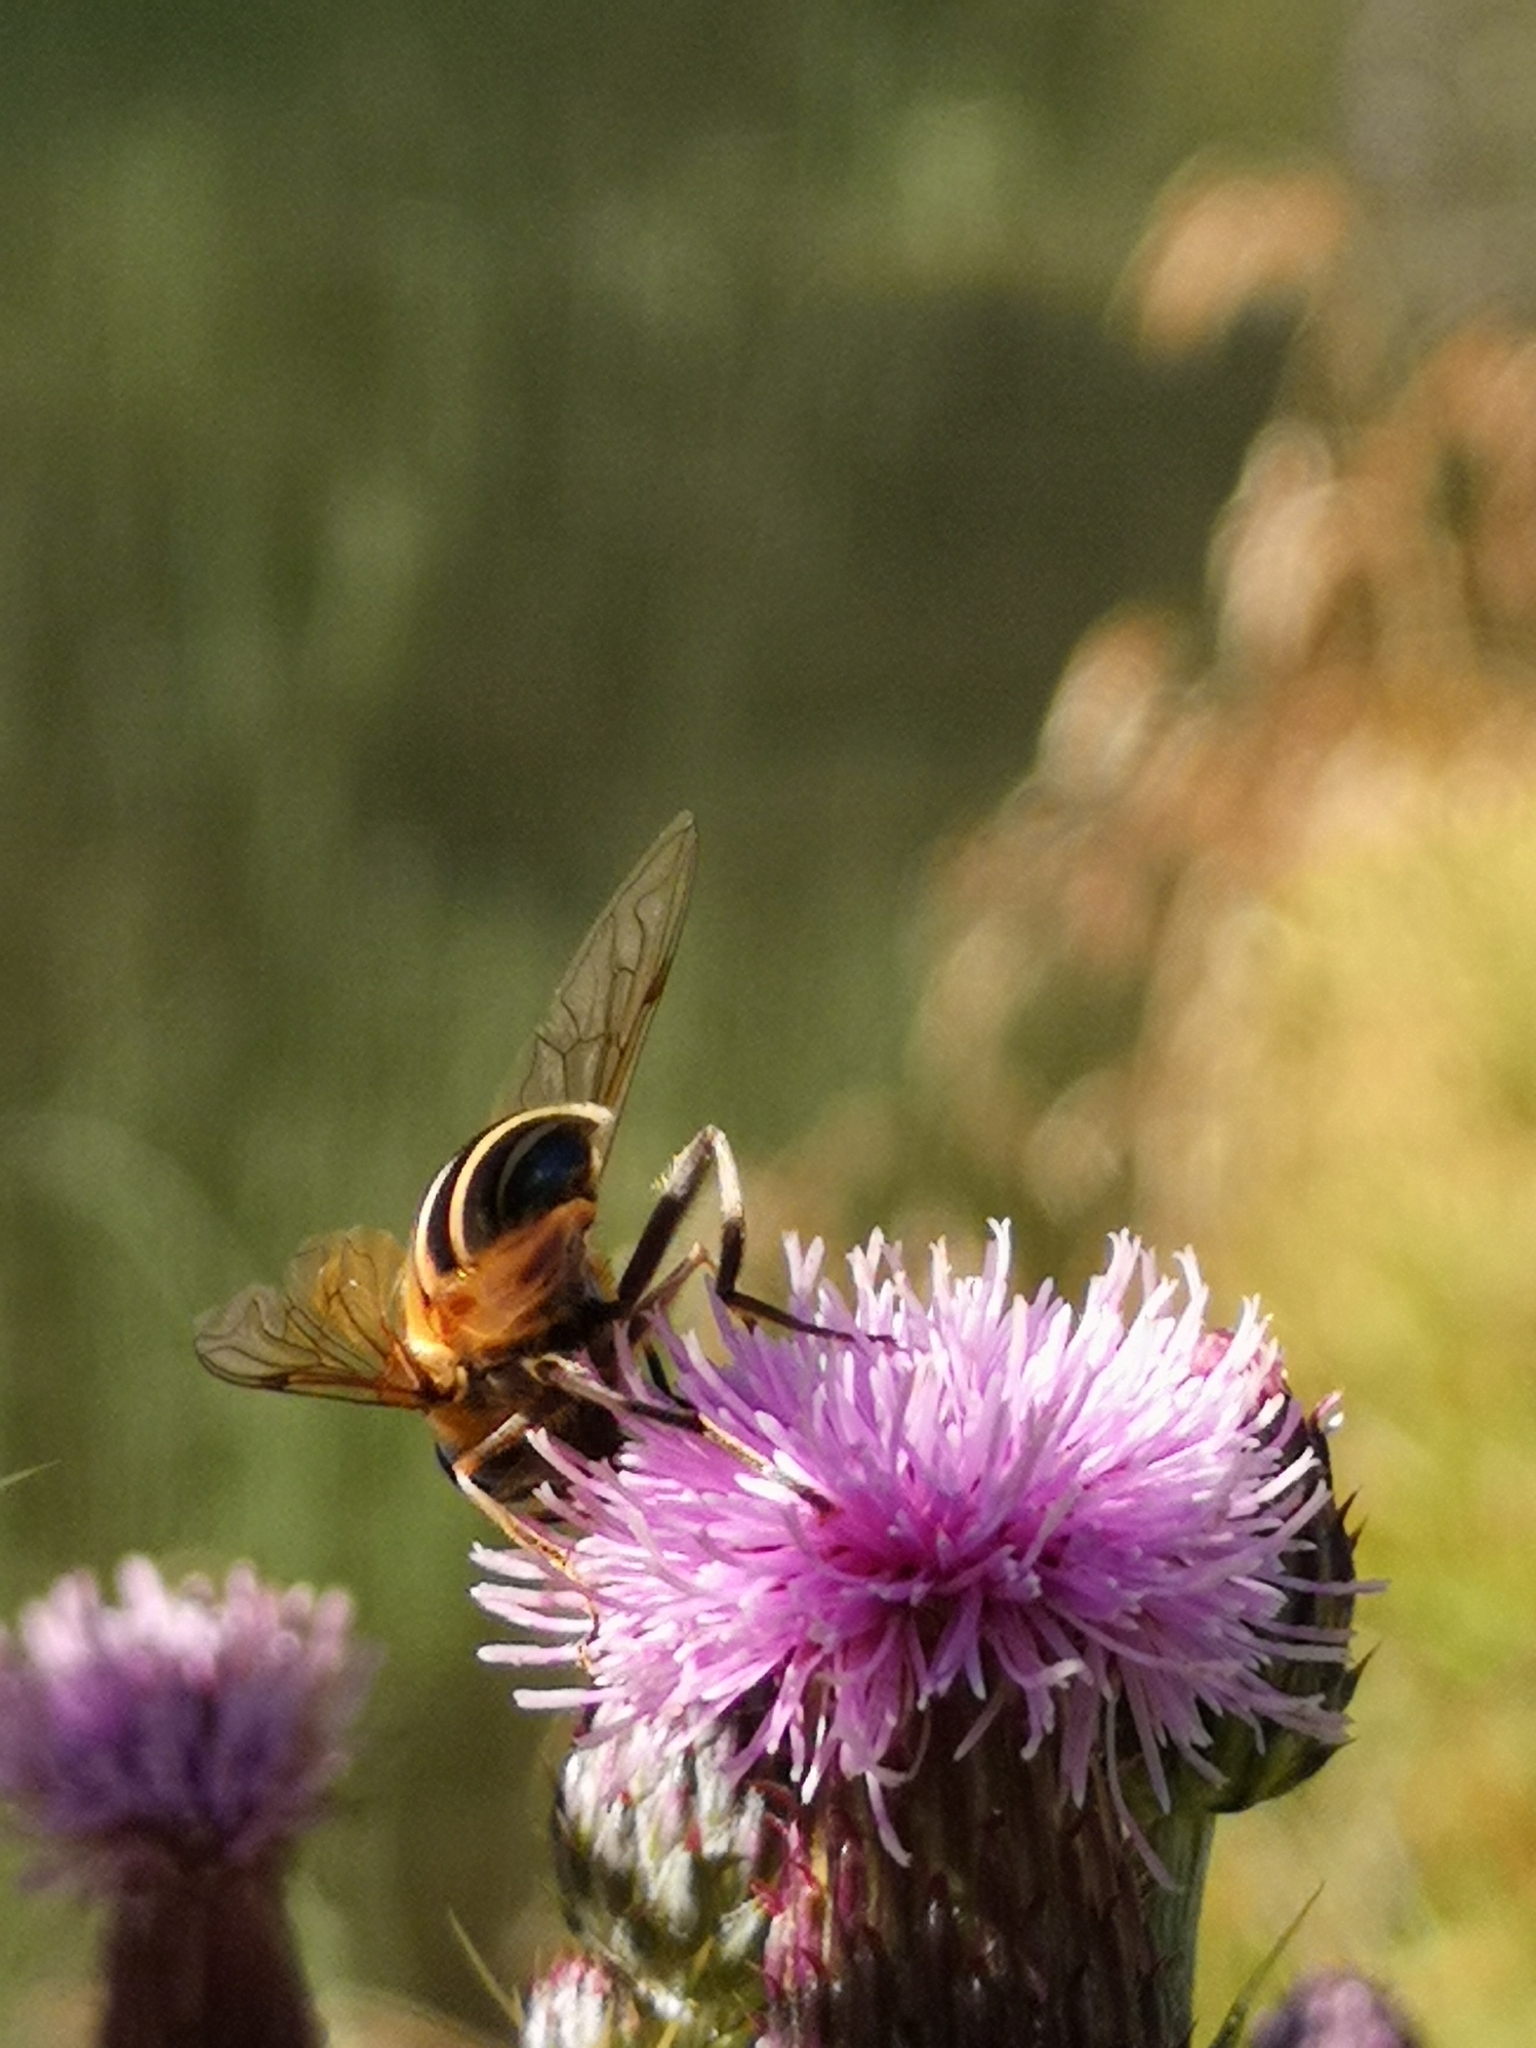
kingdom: Animalia
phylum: Arthropoda
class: Insecta
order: Diptera
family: Syrphidae
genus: Eristalis
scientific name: Eristalis pertinax
